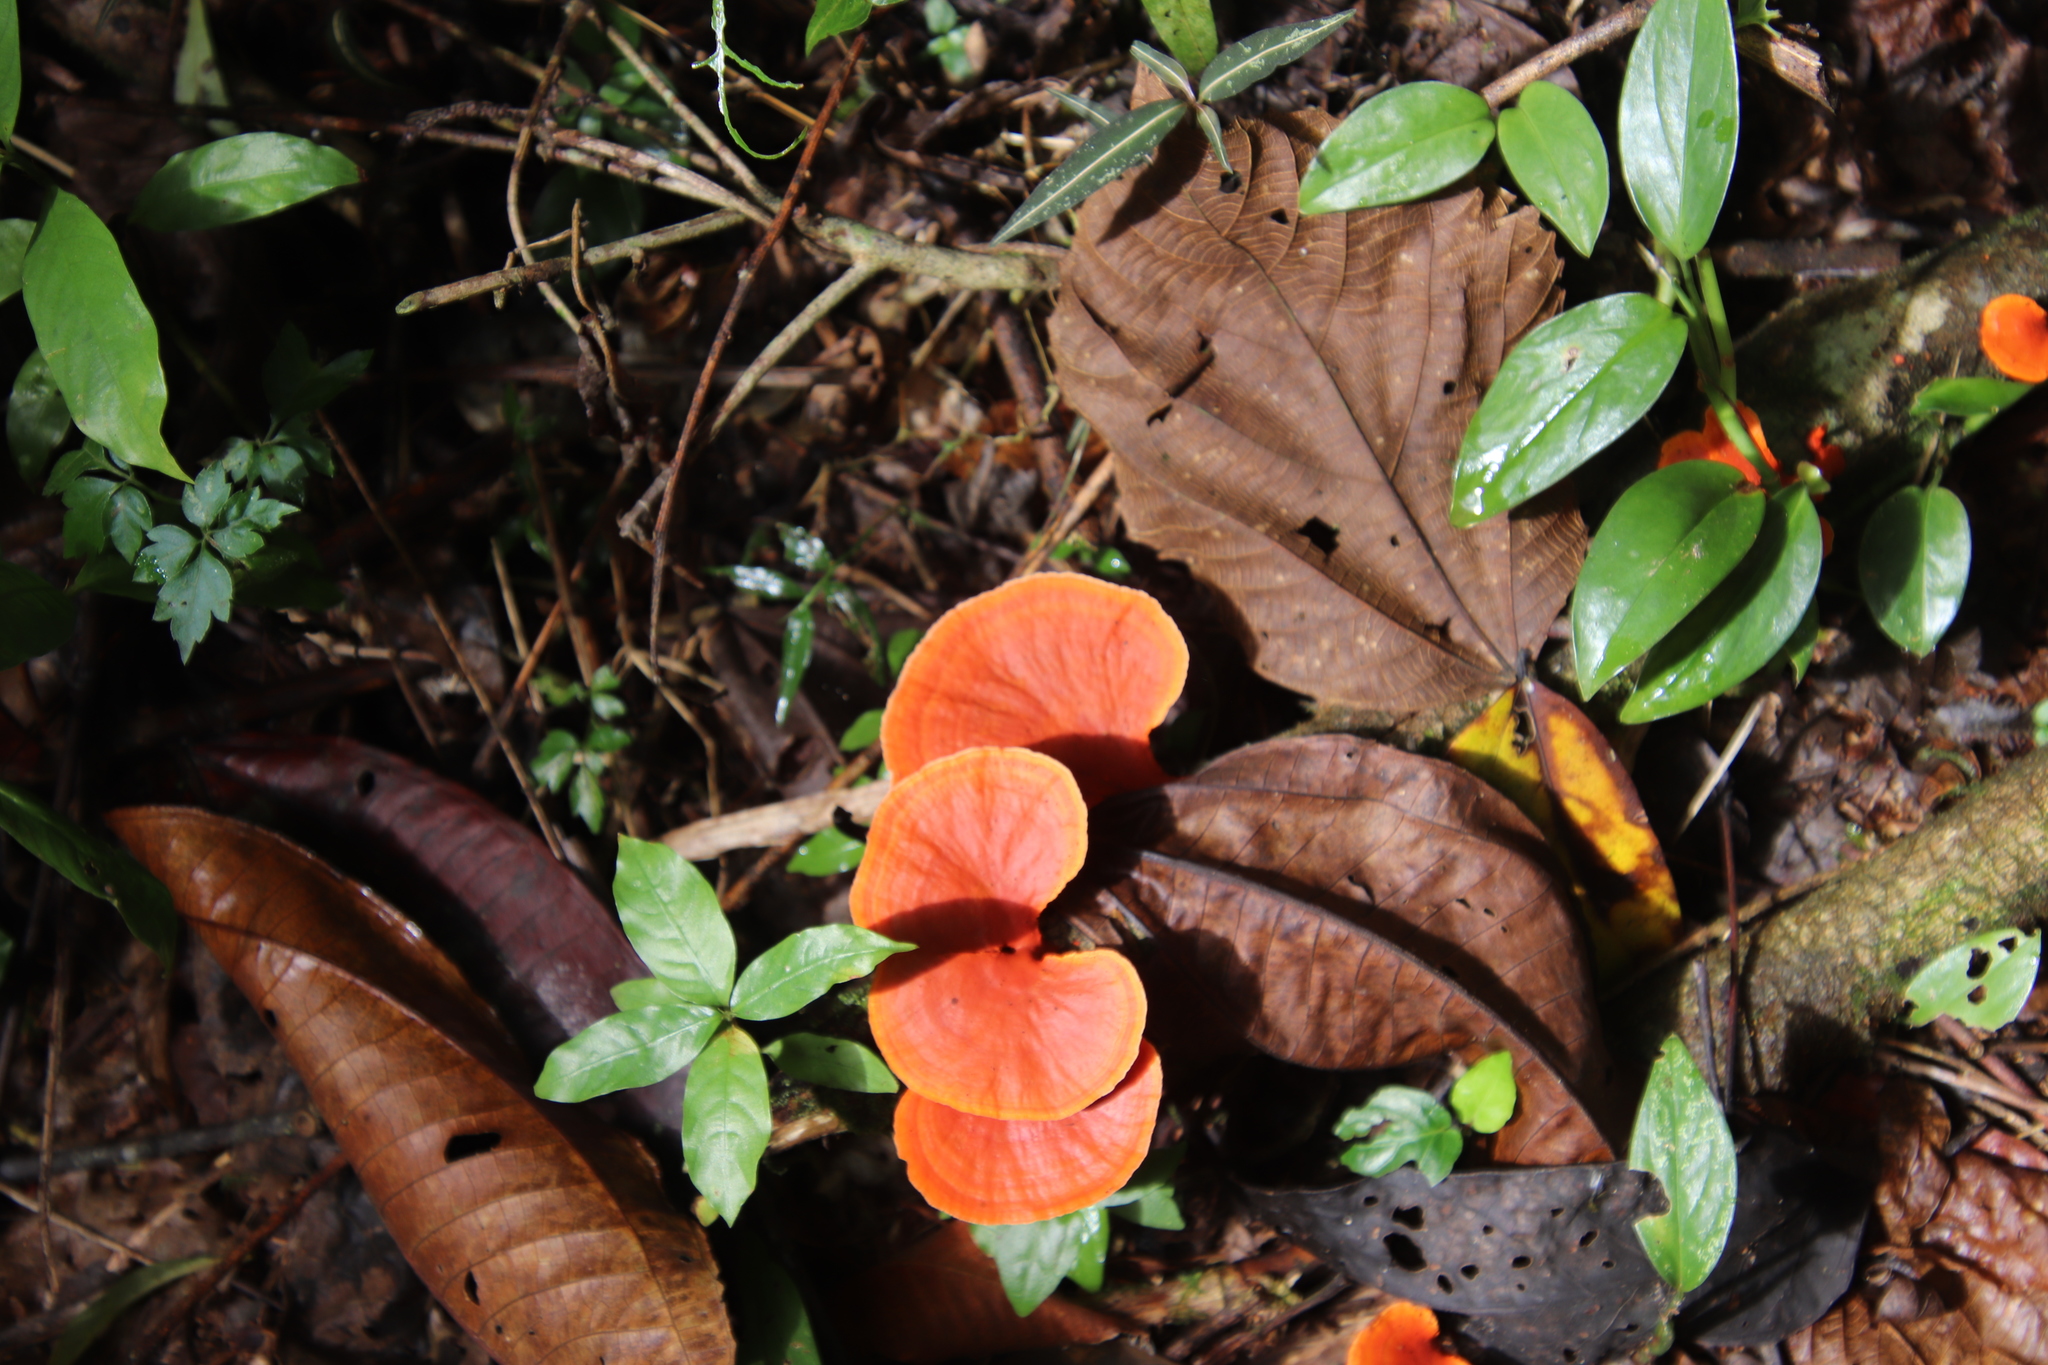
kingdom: Fungi
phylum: Basidiomycota
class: Agaricomycetes
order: Polyporales
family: Polyporaceae
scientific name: Polyporaceae
